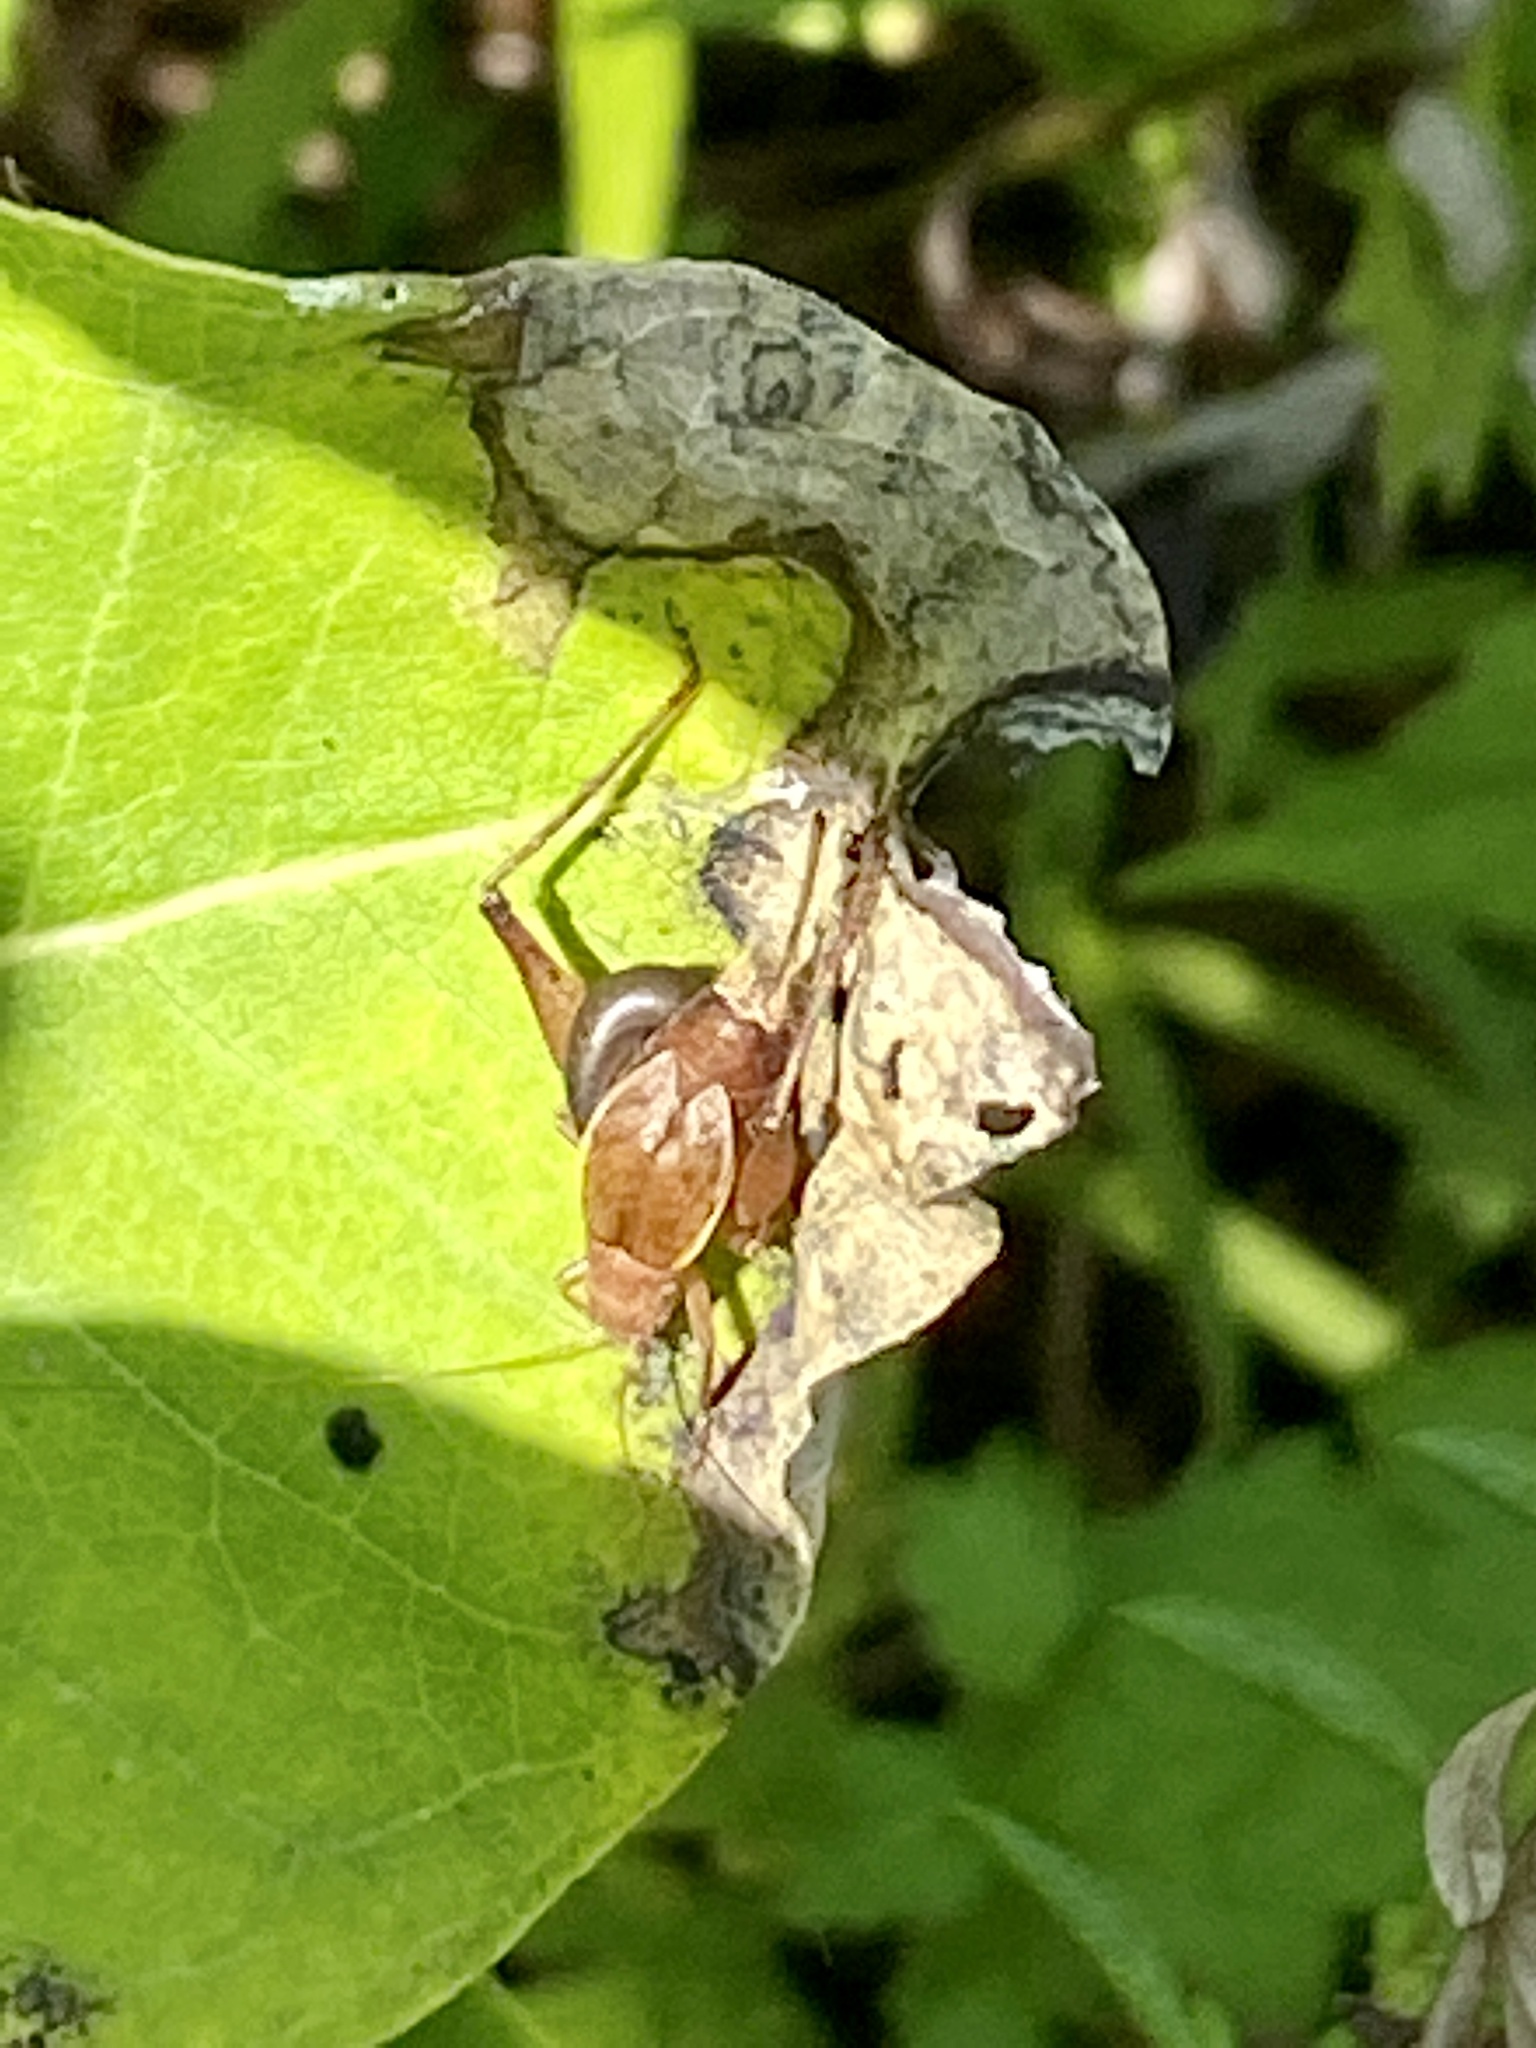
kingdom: Animalia
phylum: Arthropoda
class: Insecta
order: Orthoptera
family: Gryllidae
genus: Hapithus
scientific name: Hapithus agitator
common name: Restless bush cricket
